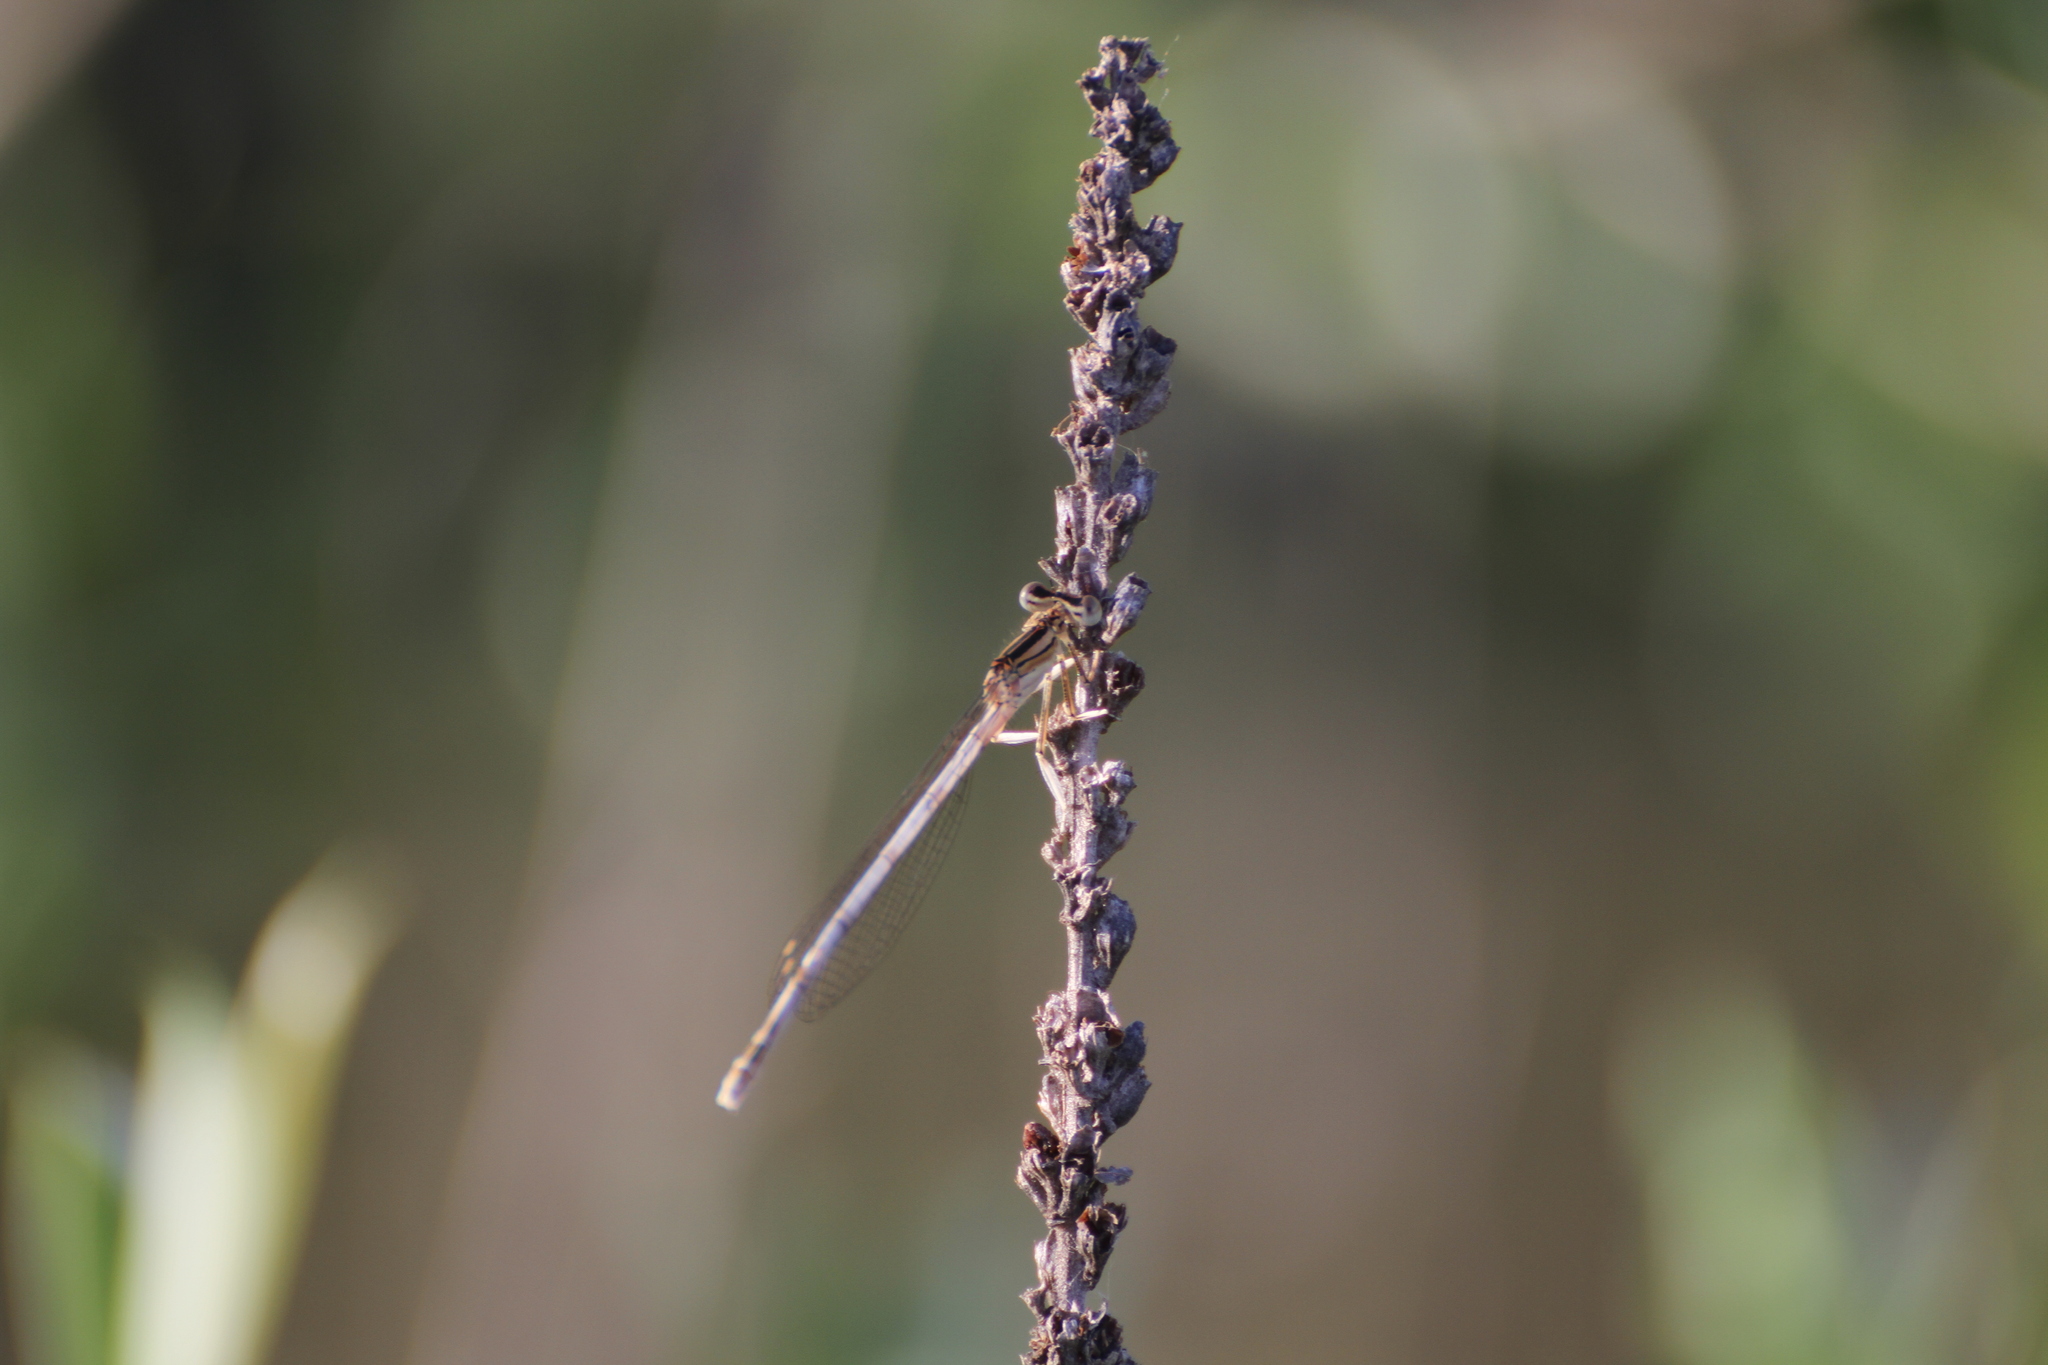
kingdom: Animalia
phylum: Arthropoda
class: Insecta
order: Odonata
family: Platycnemididae
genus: Platycnemis
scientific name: Platycnemis latipes
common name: White featherleg
